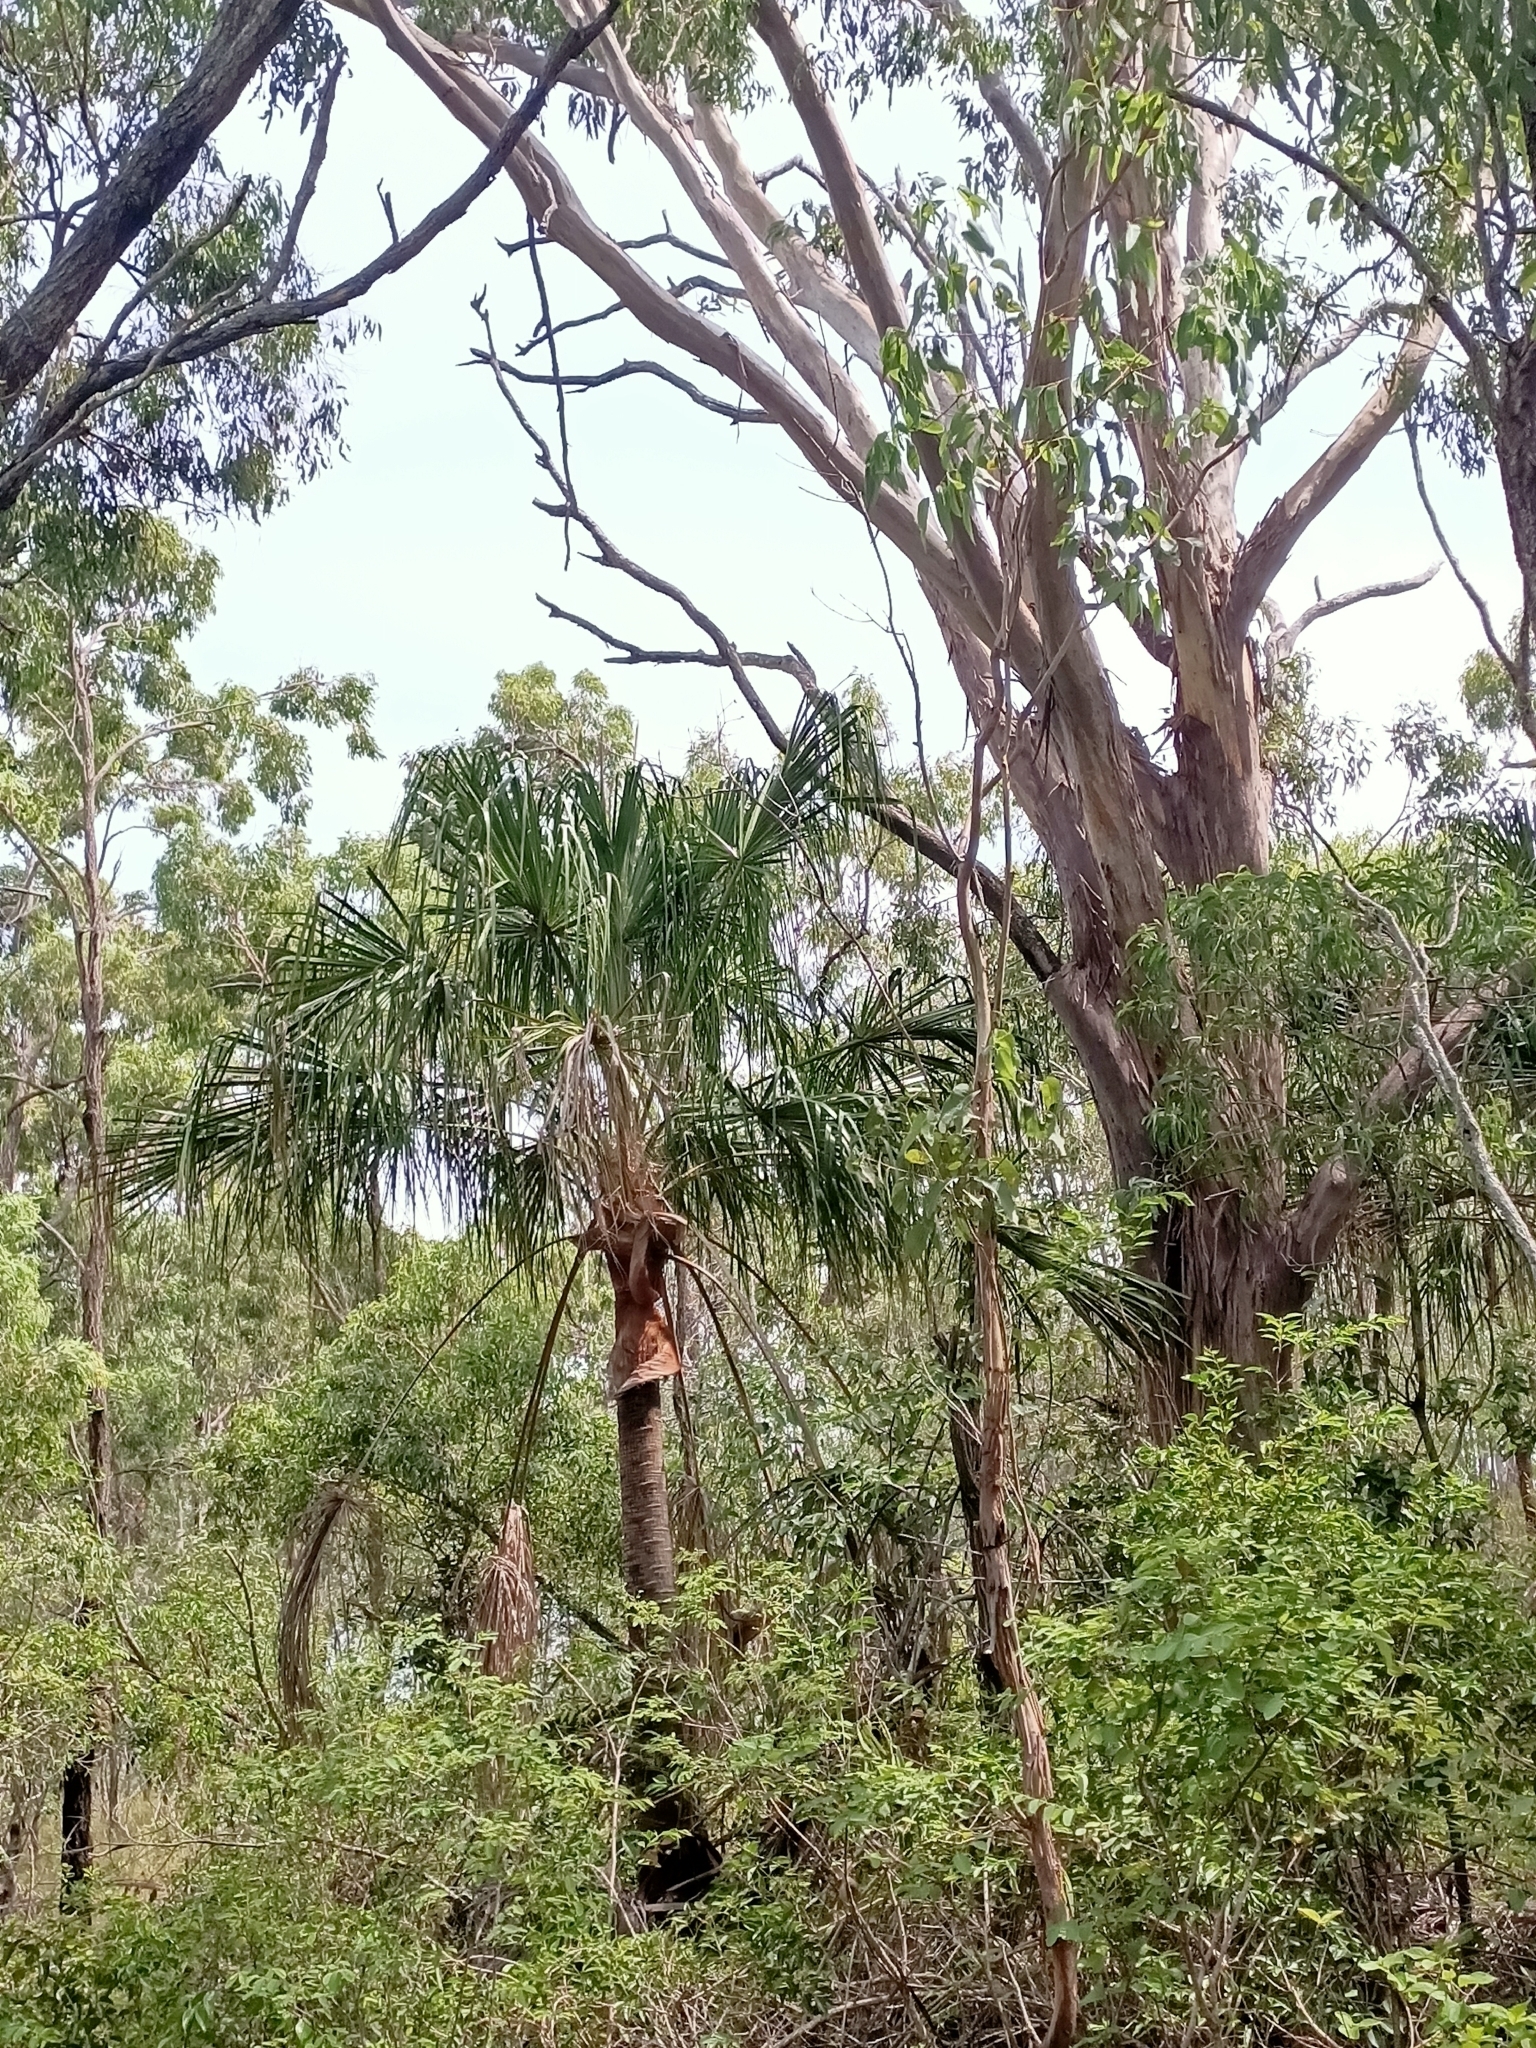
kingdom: Plantae
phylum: Tracheophyta
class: Liliopsida
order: Arecales
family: Arecaceae
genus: Livistona
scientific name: Livistona decora
